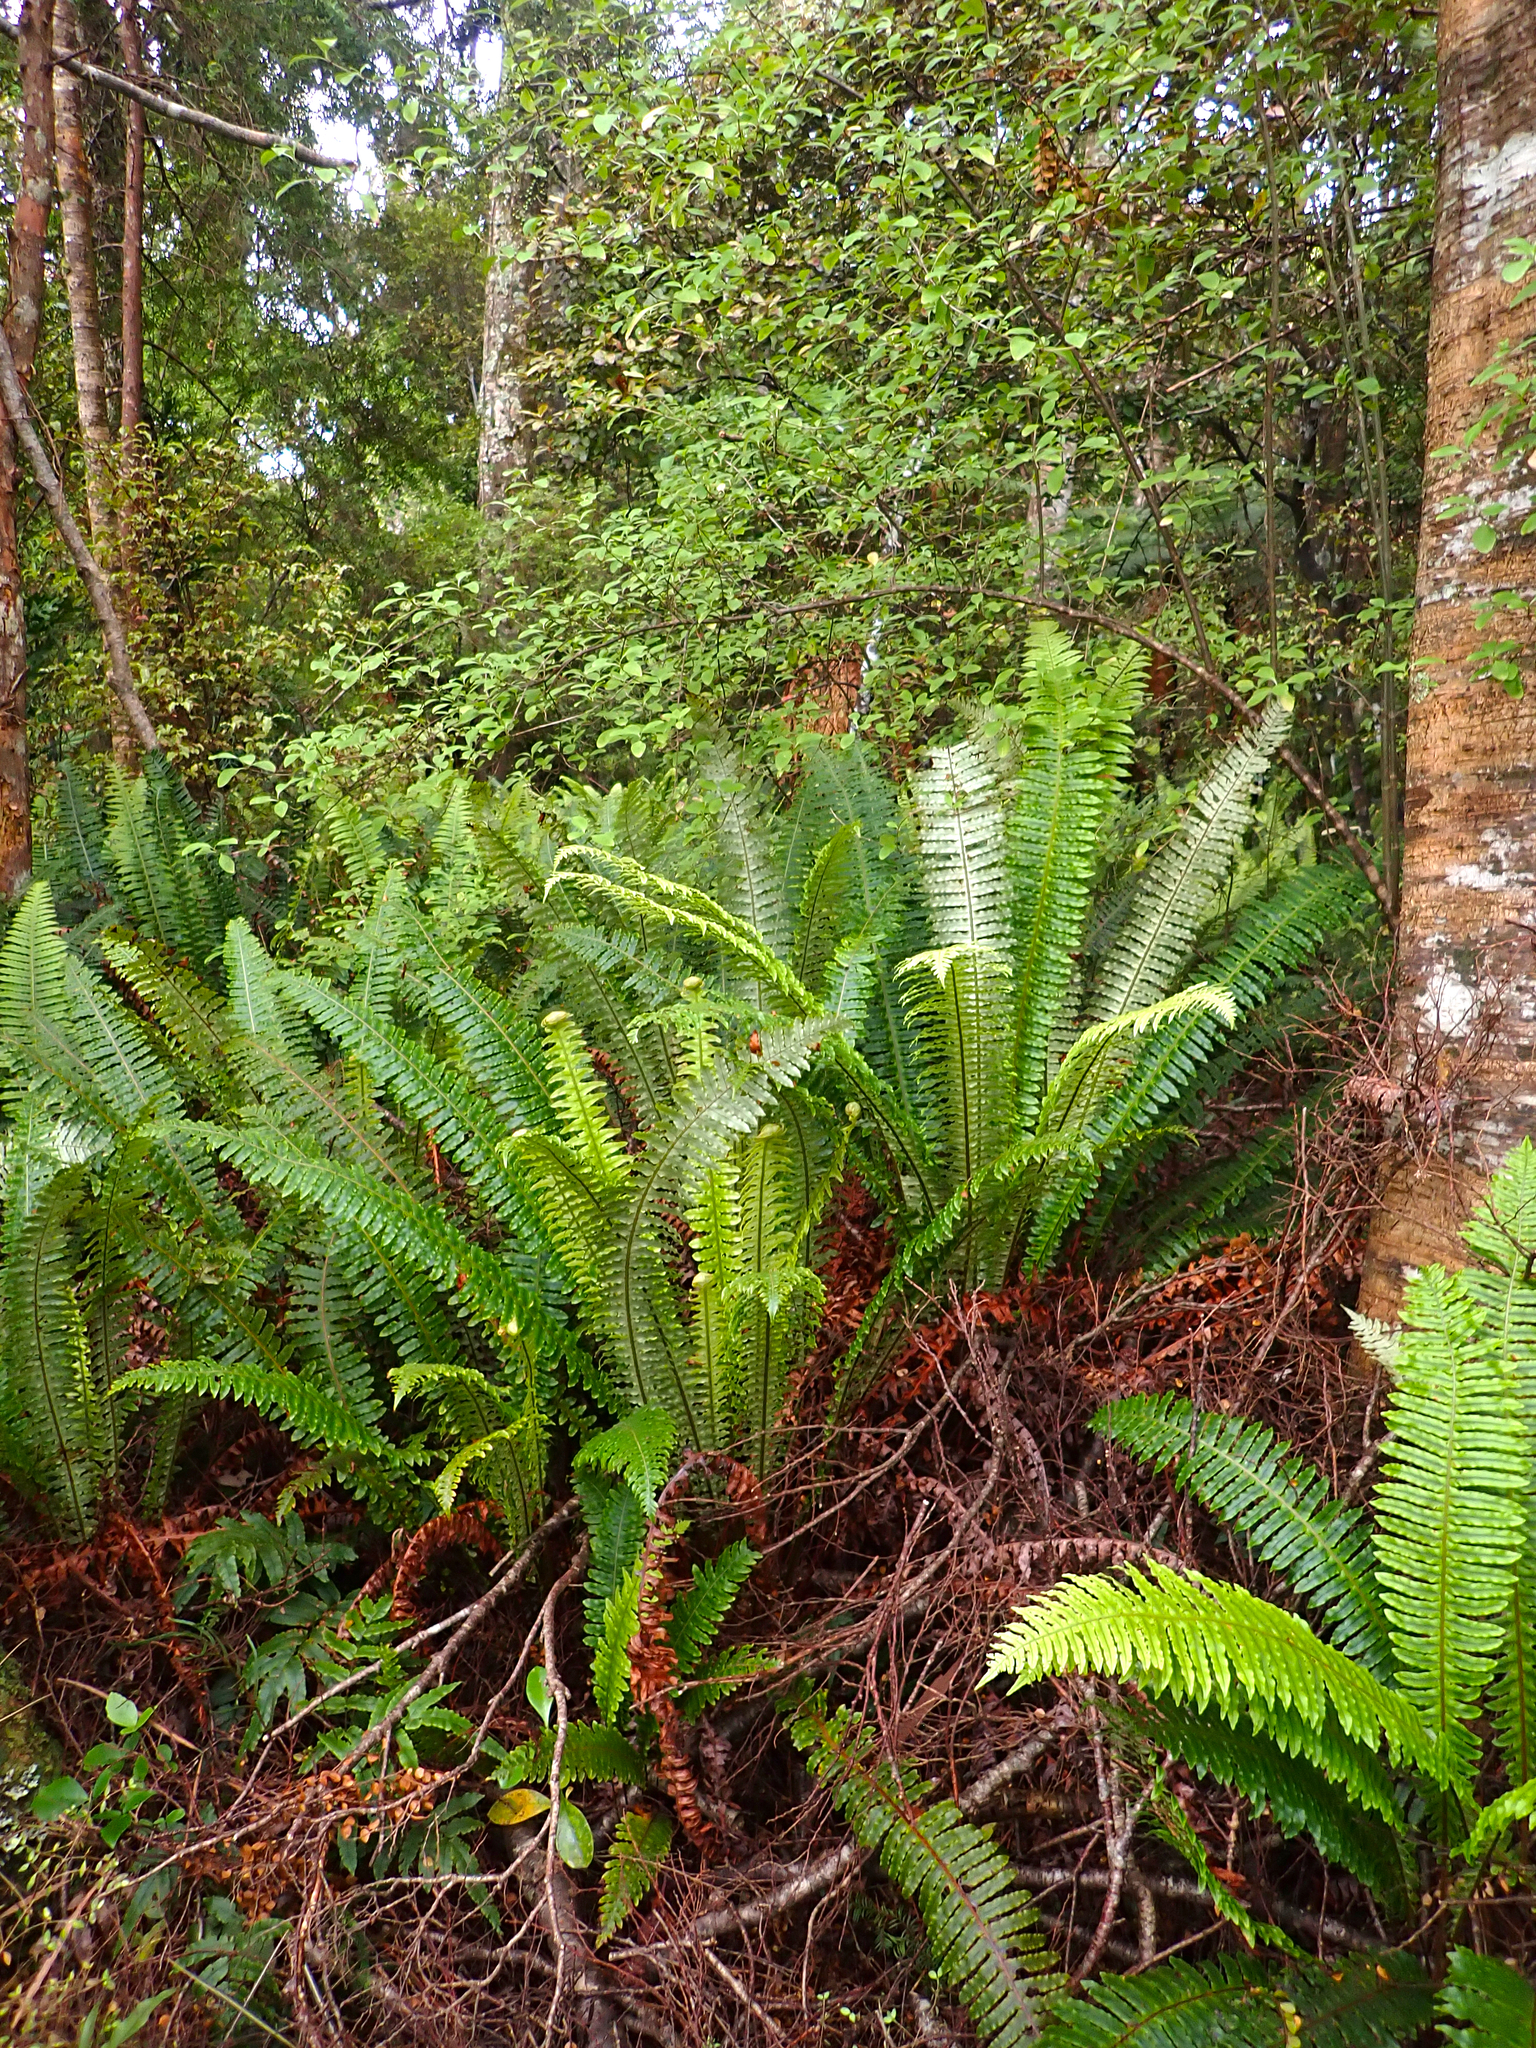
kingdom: Plantae
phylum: Tracheophyta
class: Polypodiopsida
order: Polypodiales
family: Blechnaceae
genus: Lomaria
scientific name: Lomaria discolor
